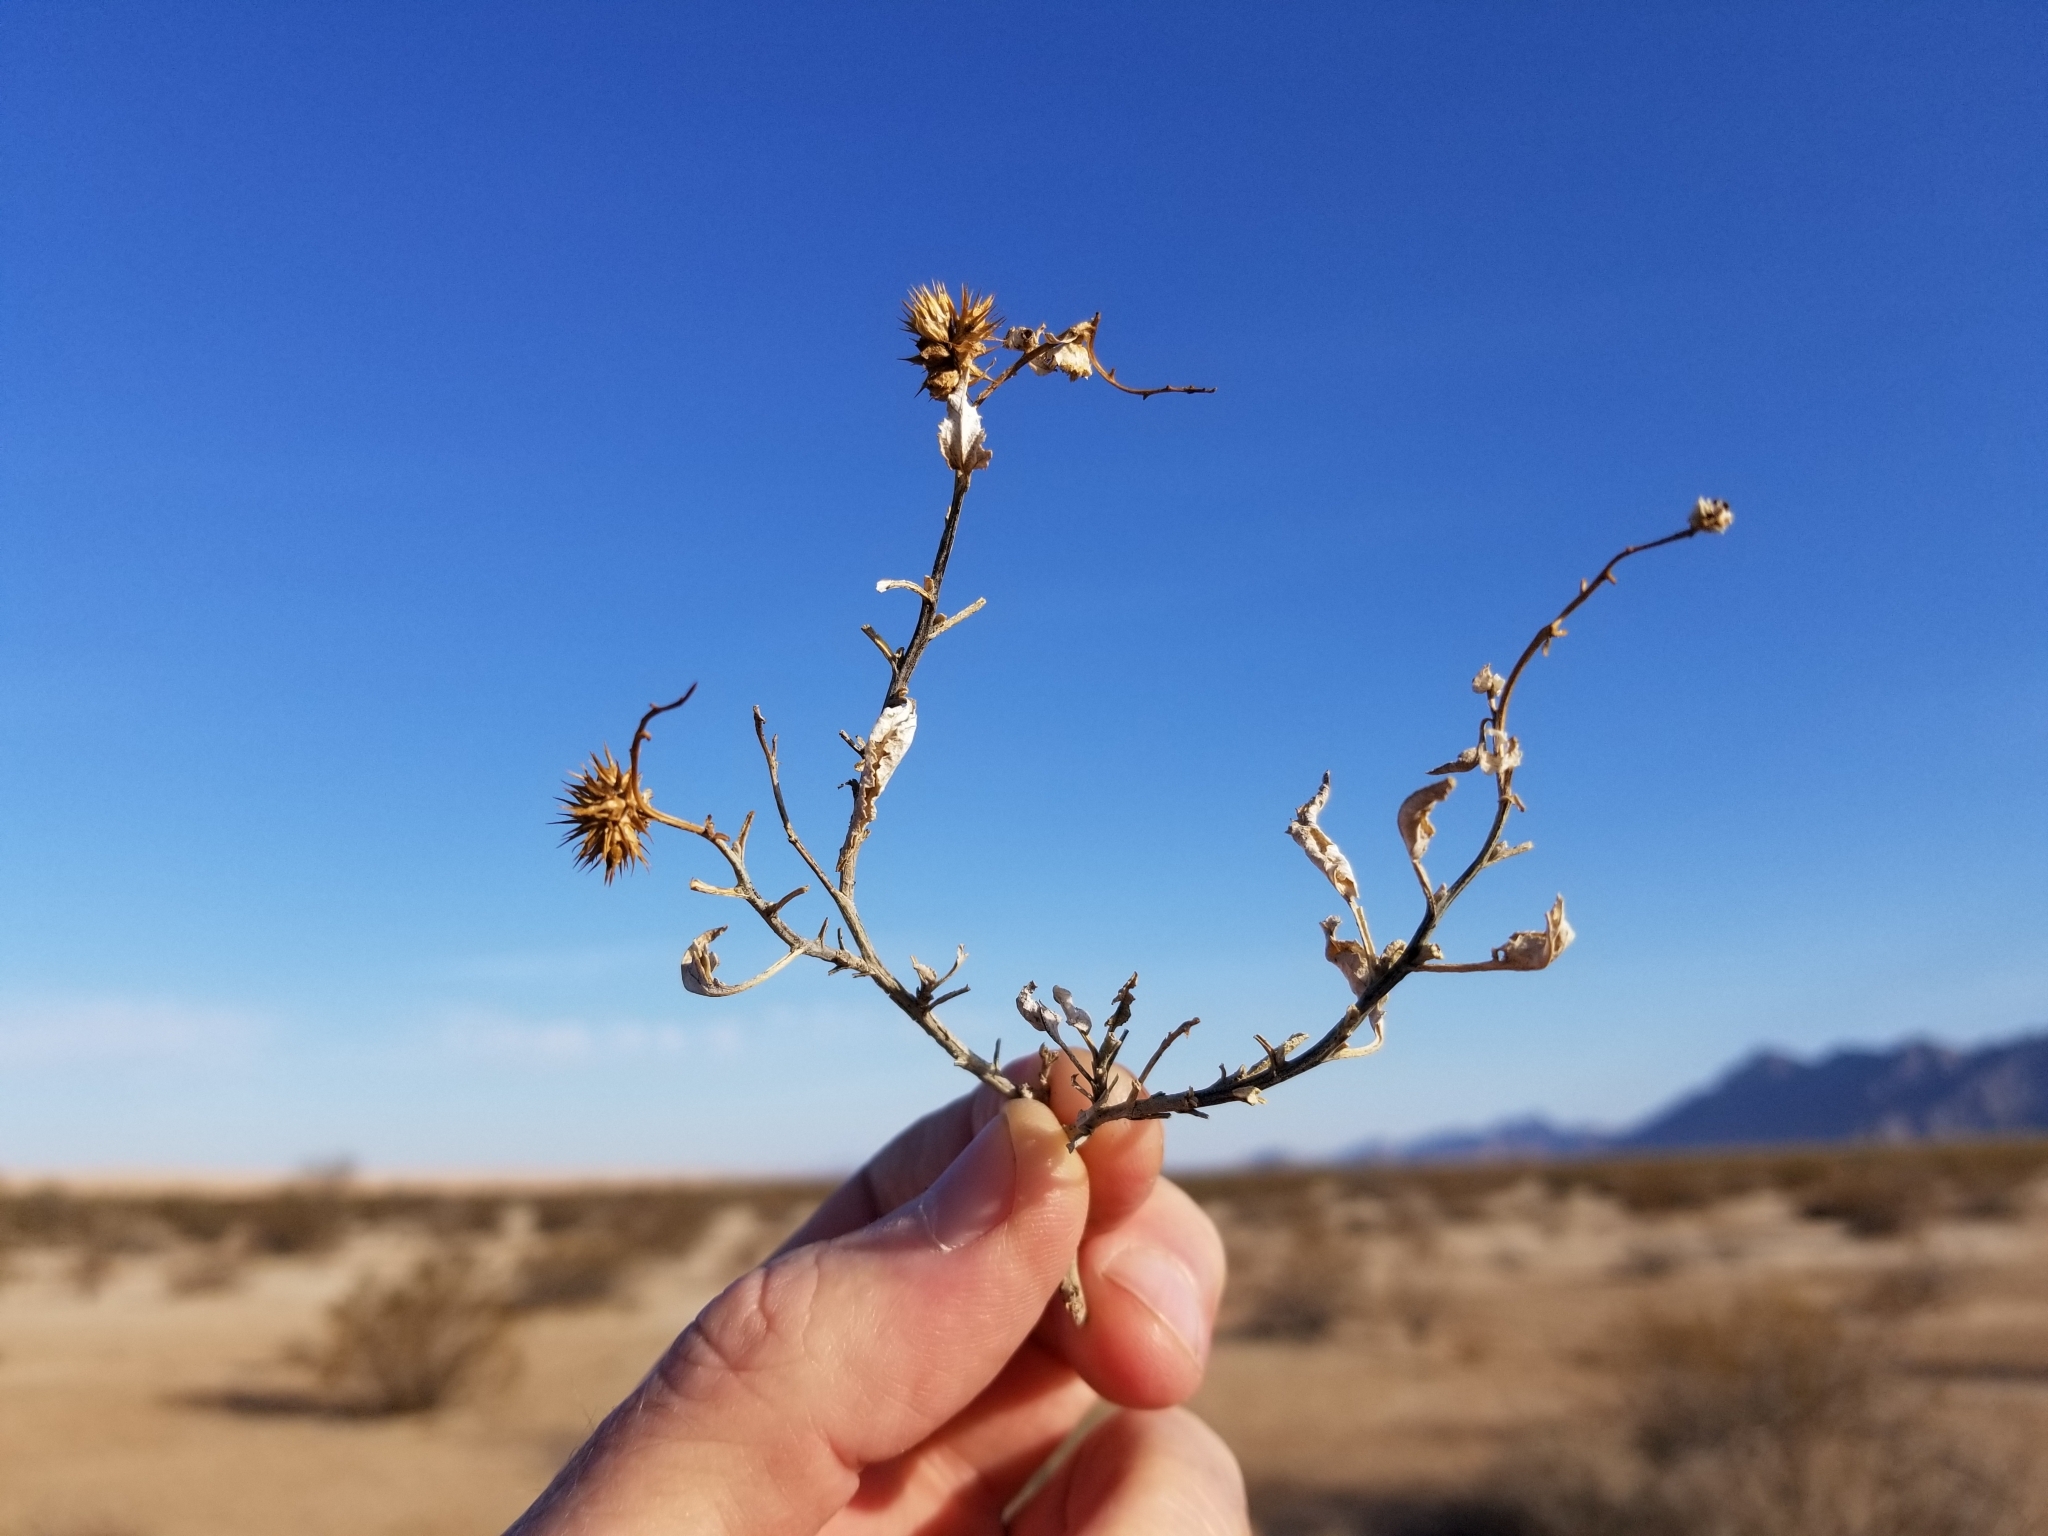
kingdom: Plantae
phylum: Tracheophyta
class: Magnoliopsida
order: Asterales
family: Asteraceae
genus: Ambrosia
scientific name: Ambrosia deltoidea
